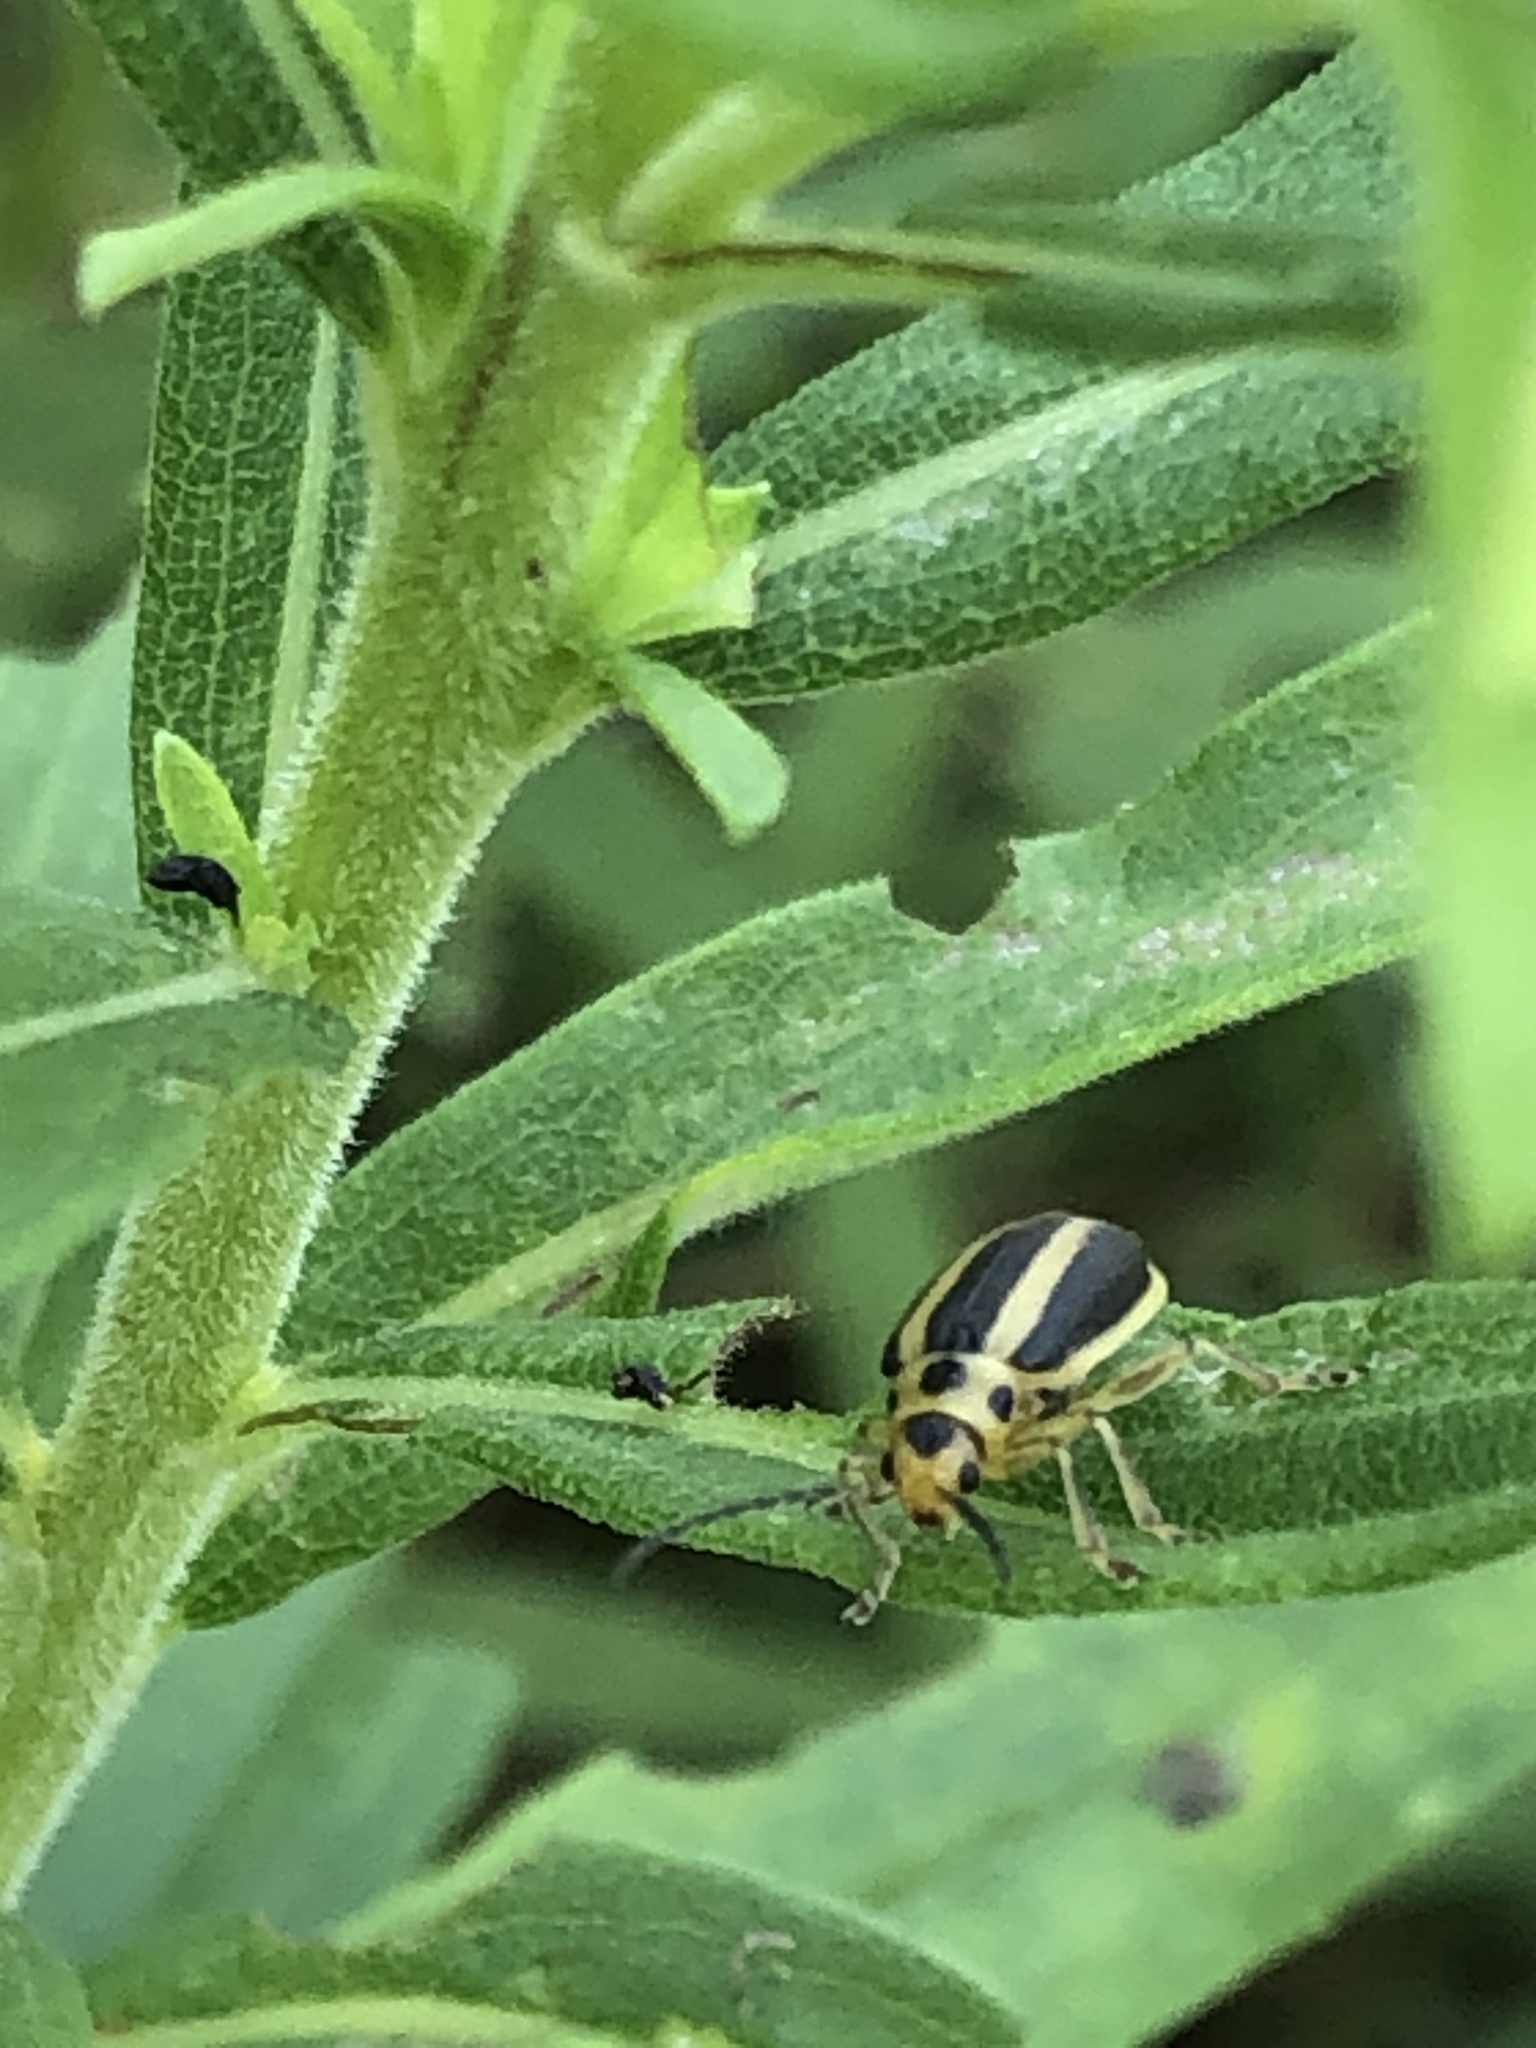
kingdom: Animalia
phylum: Arthropoda
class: Insecta
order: Coleoptera
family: Chrysomelidae
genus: Trirhabda
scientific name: Trirhabda canadensis
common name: Goldenrod leaf beetle
